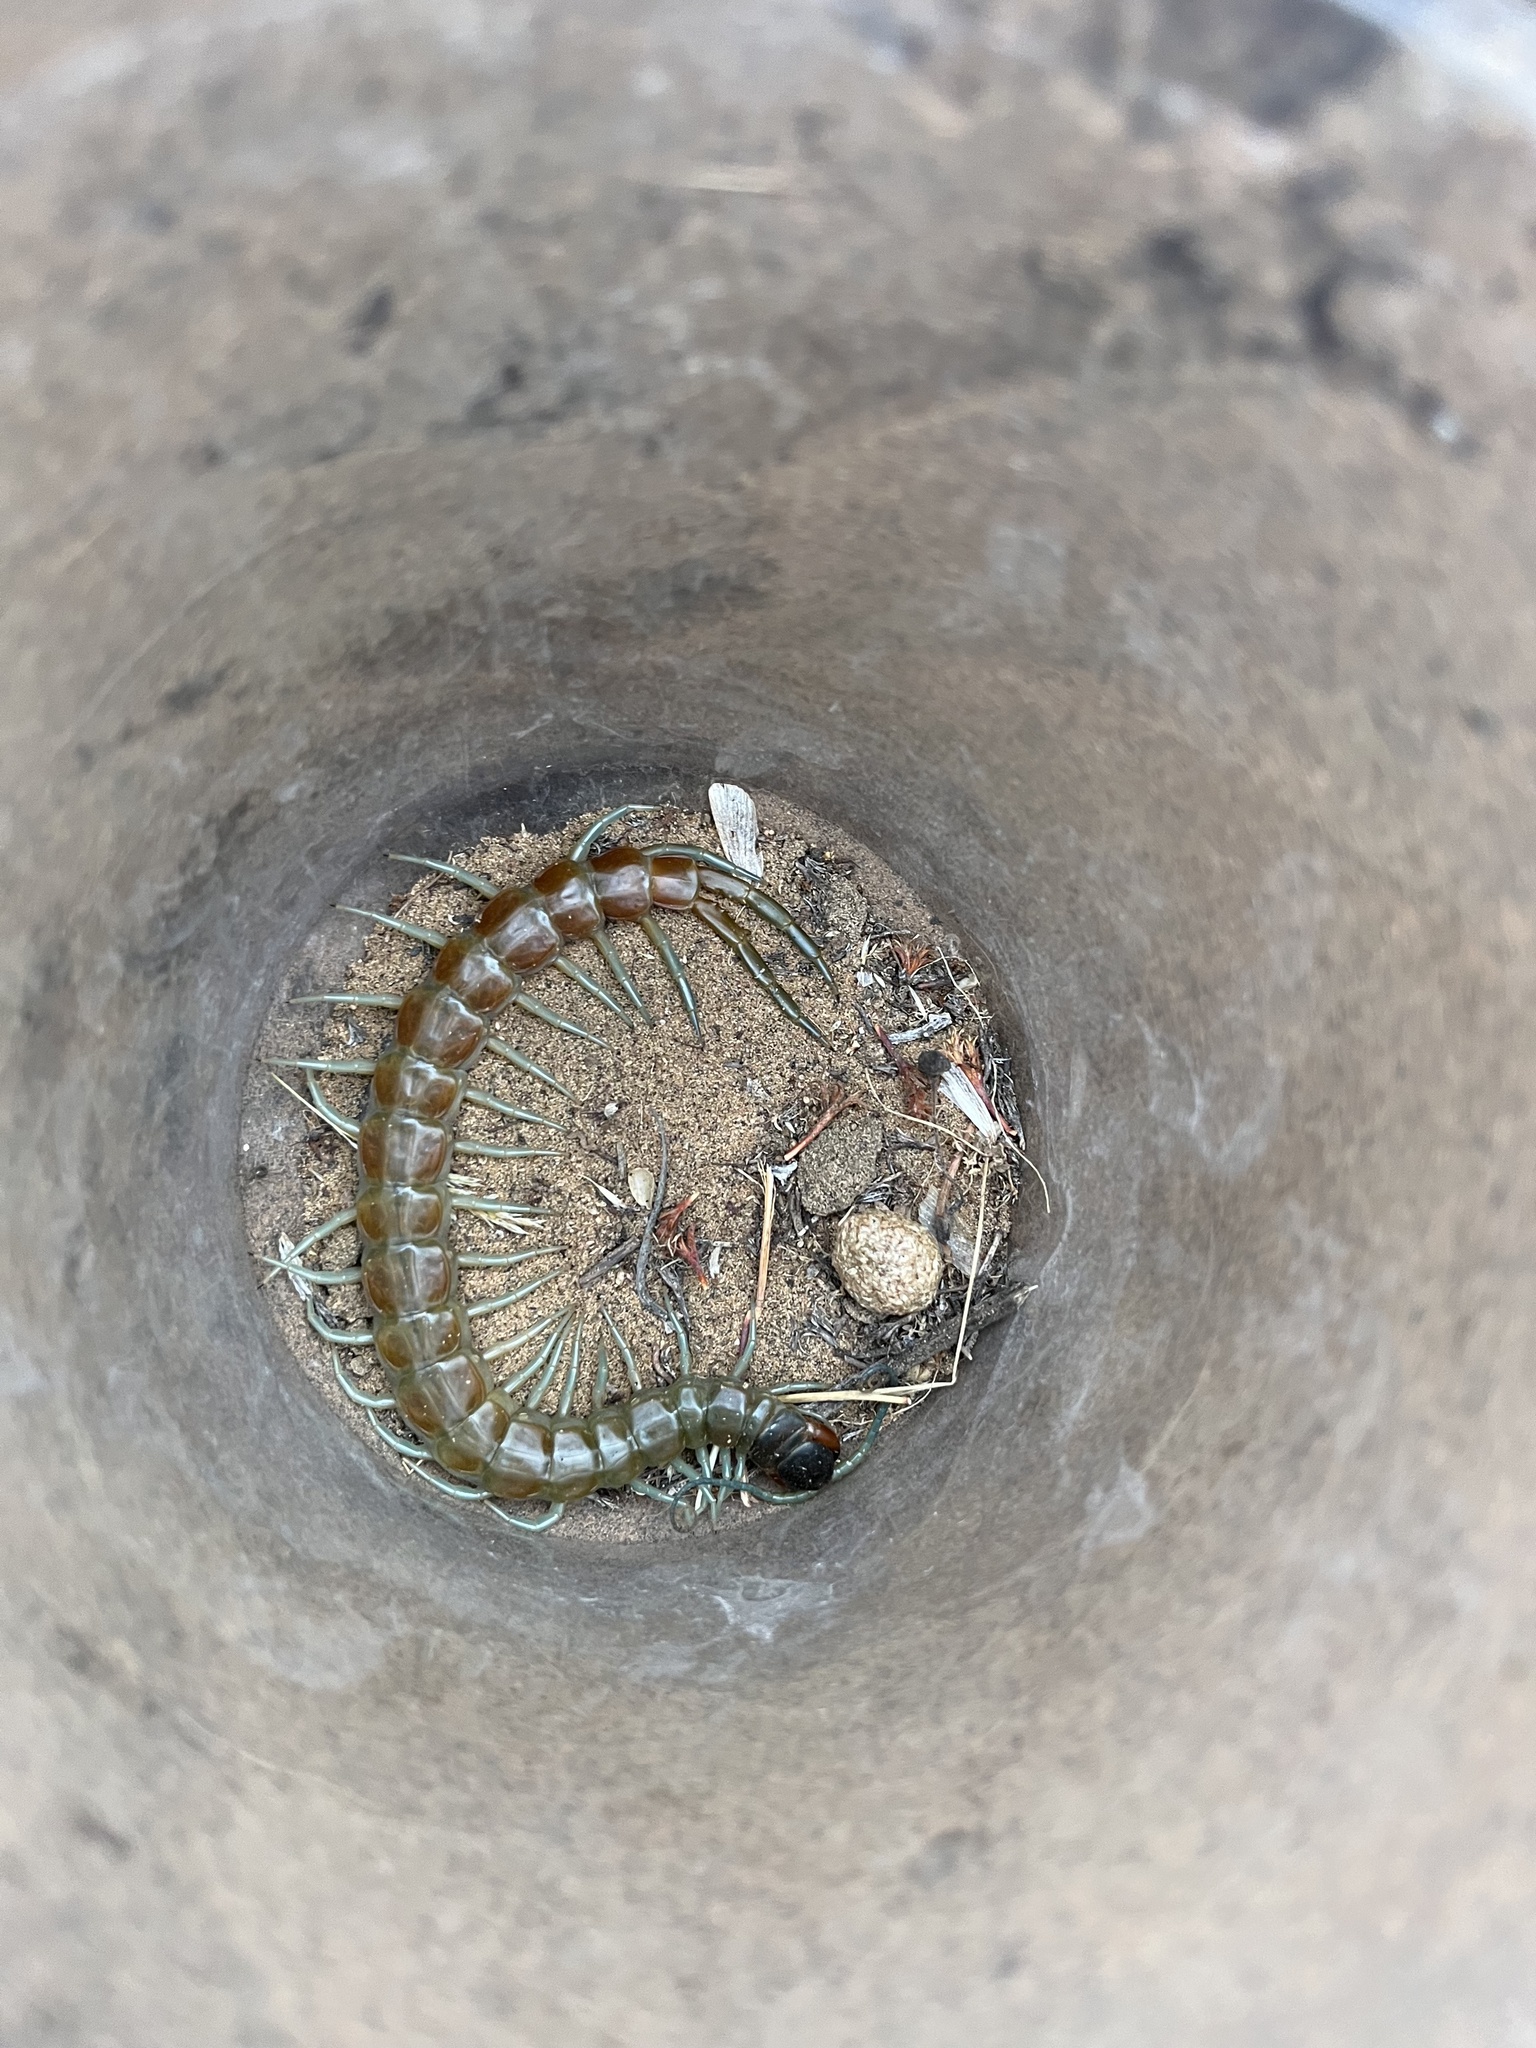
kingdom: Animalia
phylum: Arthropoda
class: Chilopoda
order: Scolopendromorpha
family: Scolopendridae
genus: Scolopendra
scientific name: Scolopendra aztecorum
